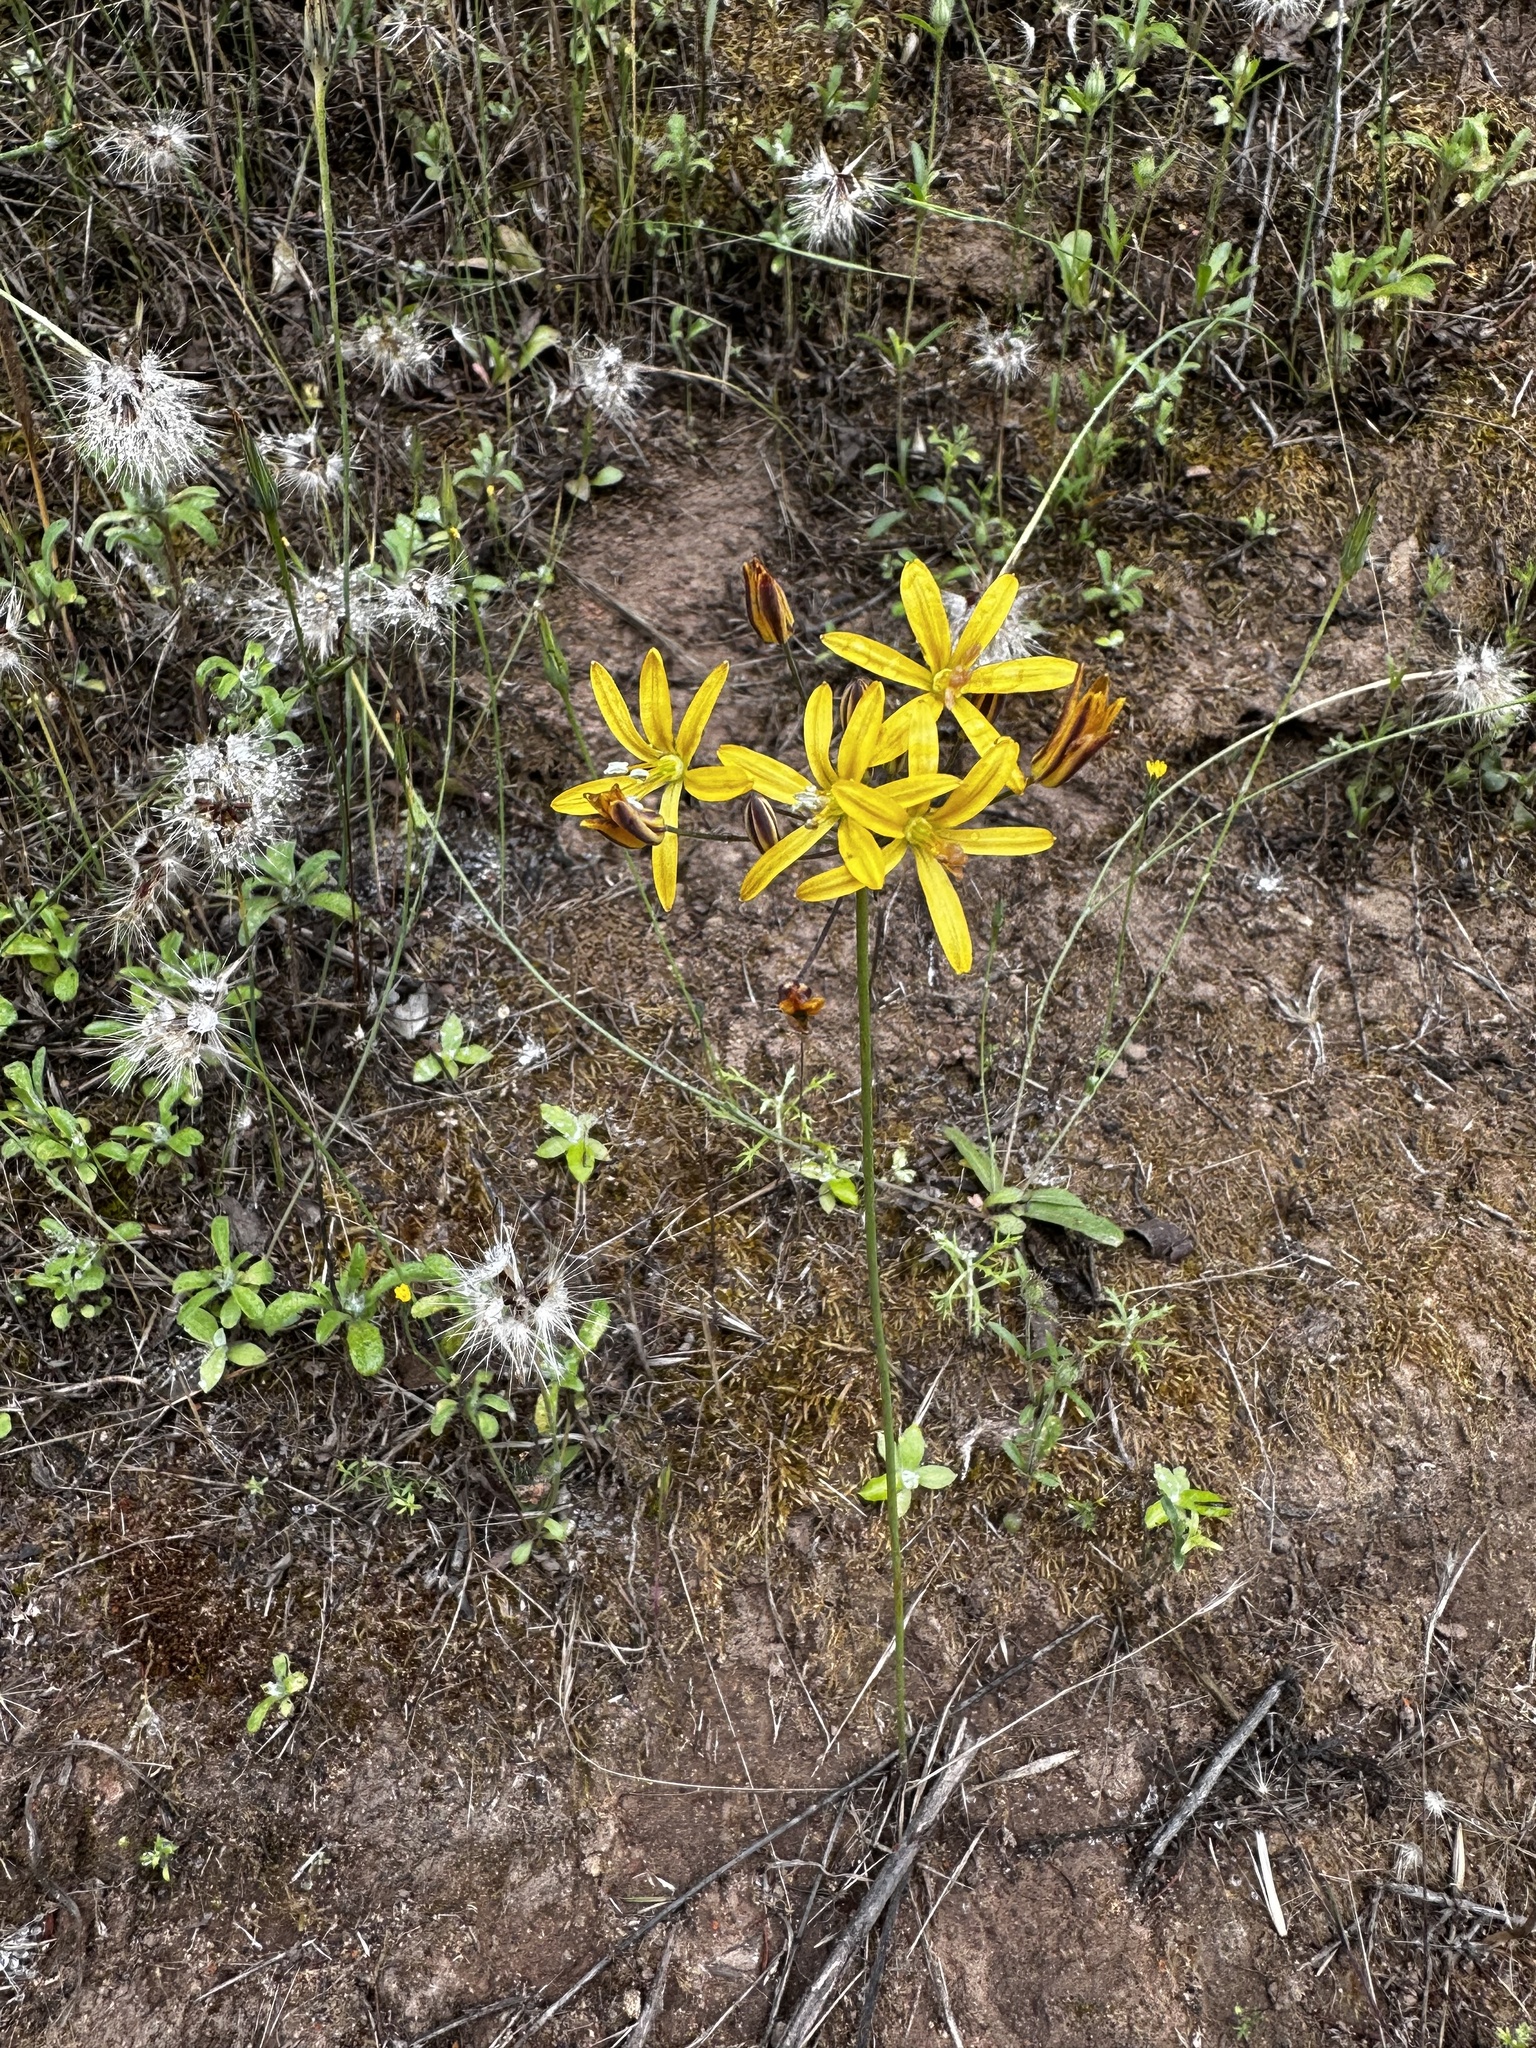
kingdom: Plantae
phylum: Tracheophyta
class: Liliopsida
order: Asparagales
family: Asparagaceae
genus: Bloomeria
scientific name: Bloomeria crocea
